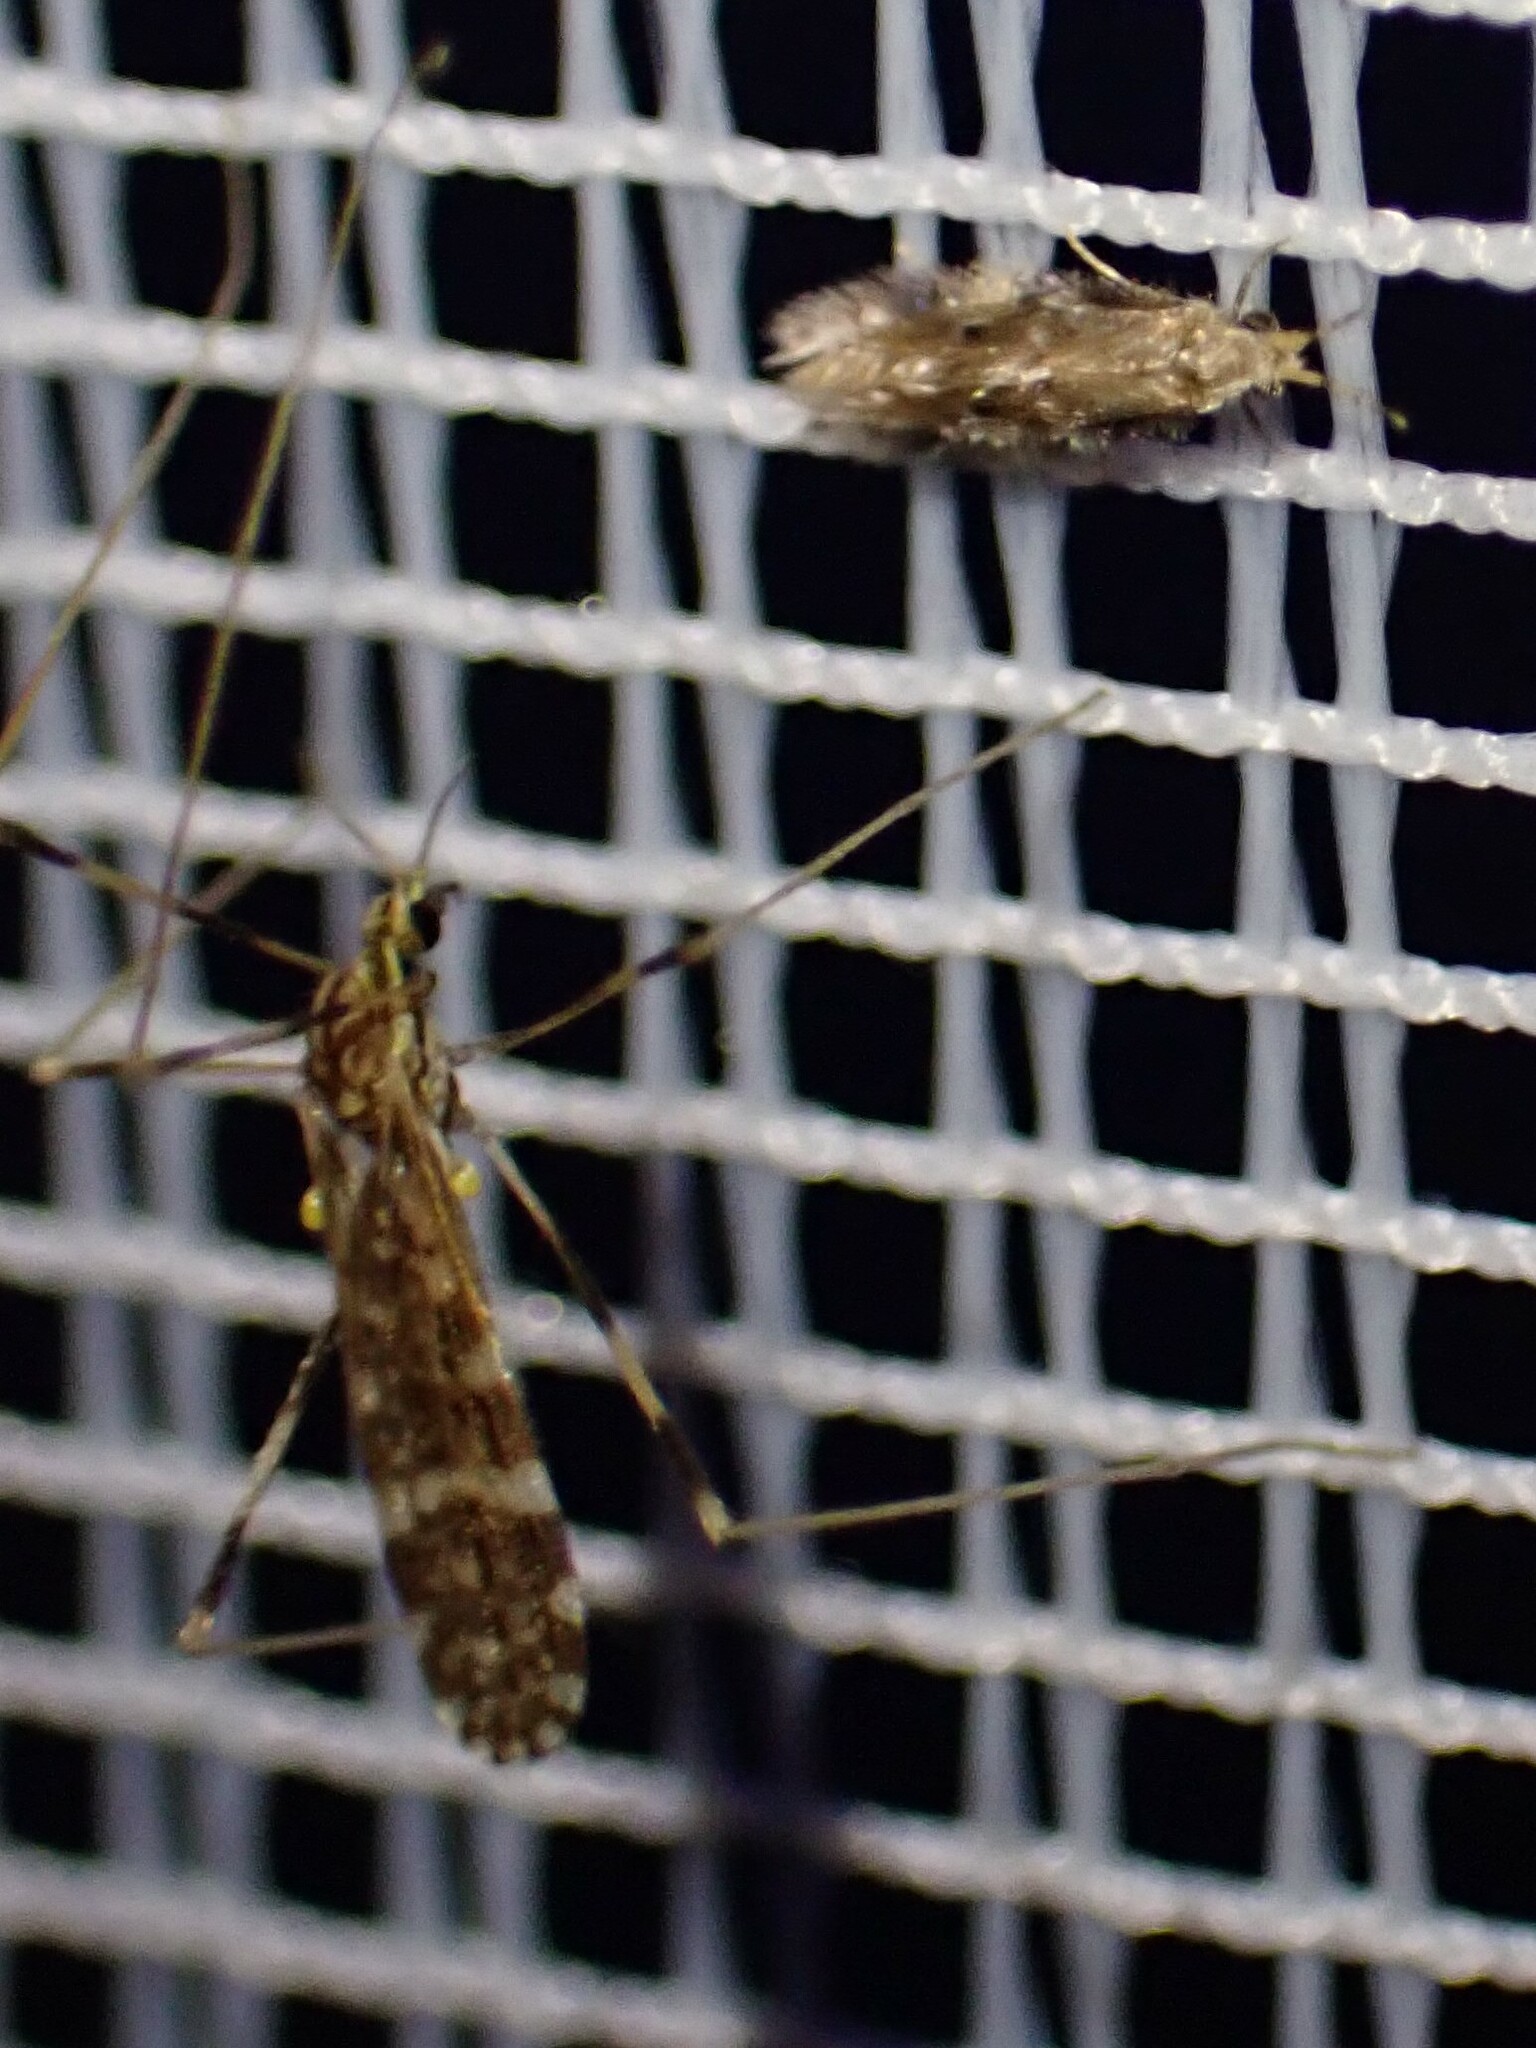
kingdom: Animalia
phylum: Arthropoda
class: Insecta
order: Diptera
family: Limoniidae
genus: Erioptera
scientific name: Erioptera caliptera
